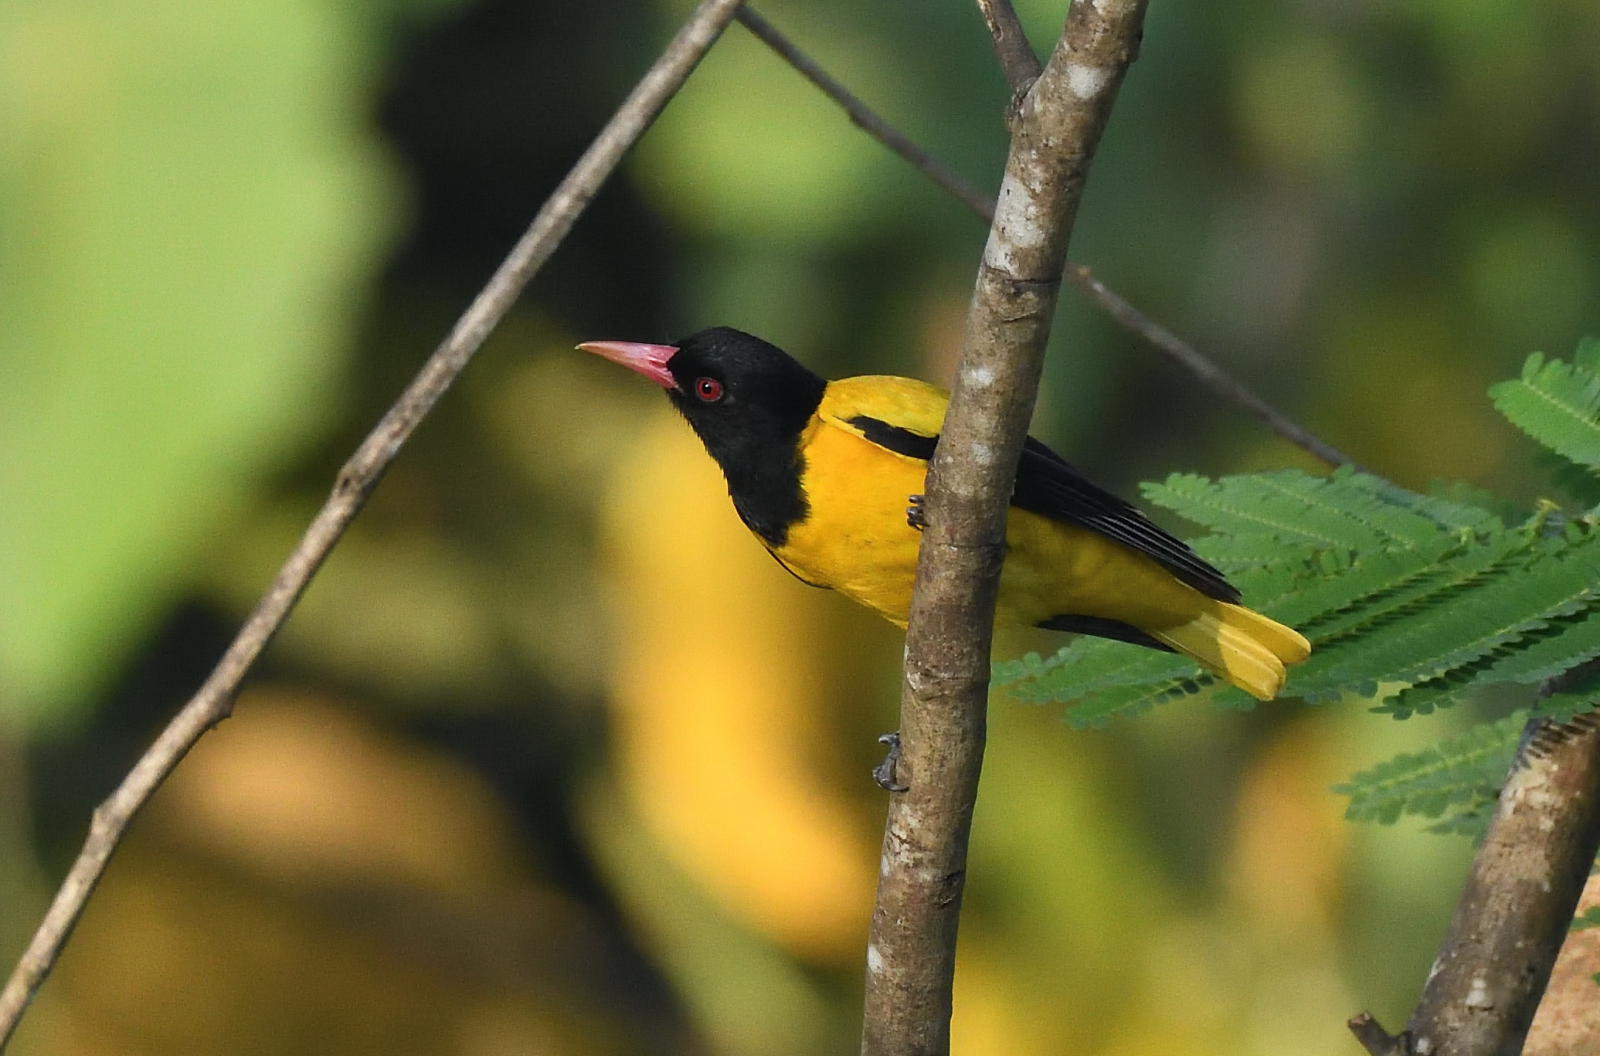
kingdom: Animalia
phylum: Chordata
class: Aves
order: Passeriformes
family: Oriolidae
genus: Oriolus
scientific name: Oriolus xanthornus
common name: Black-hooded oriole
